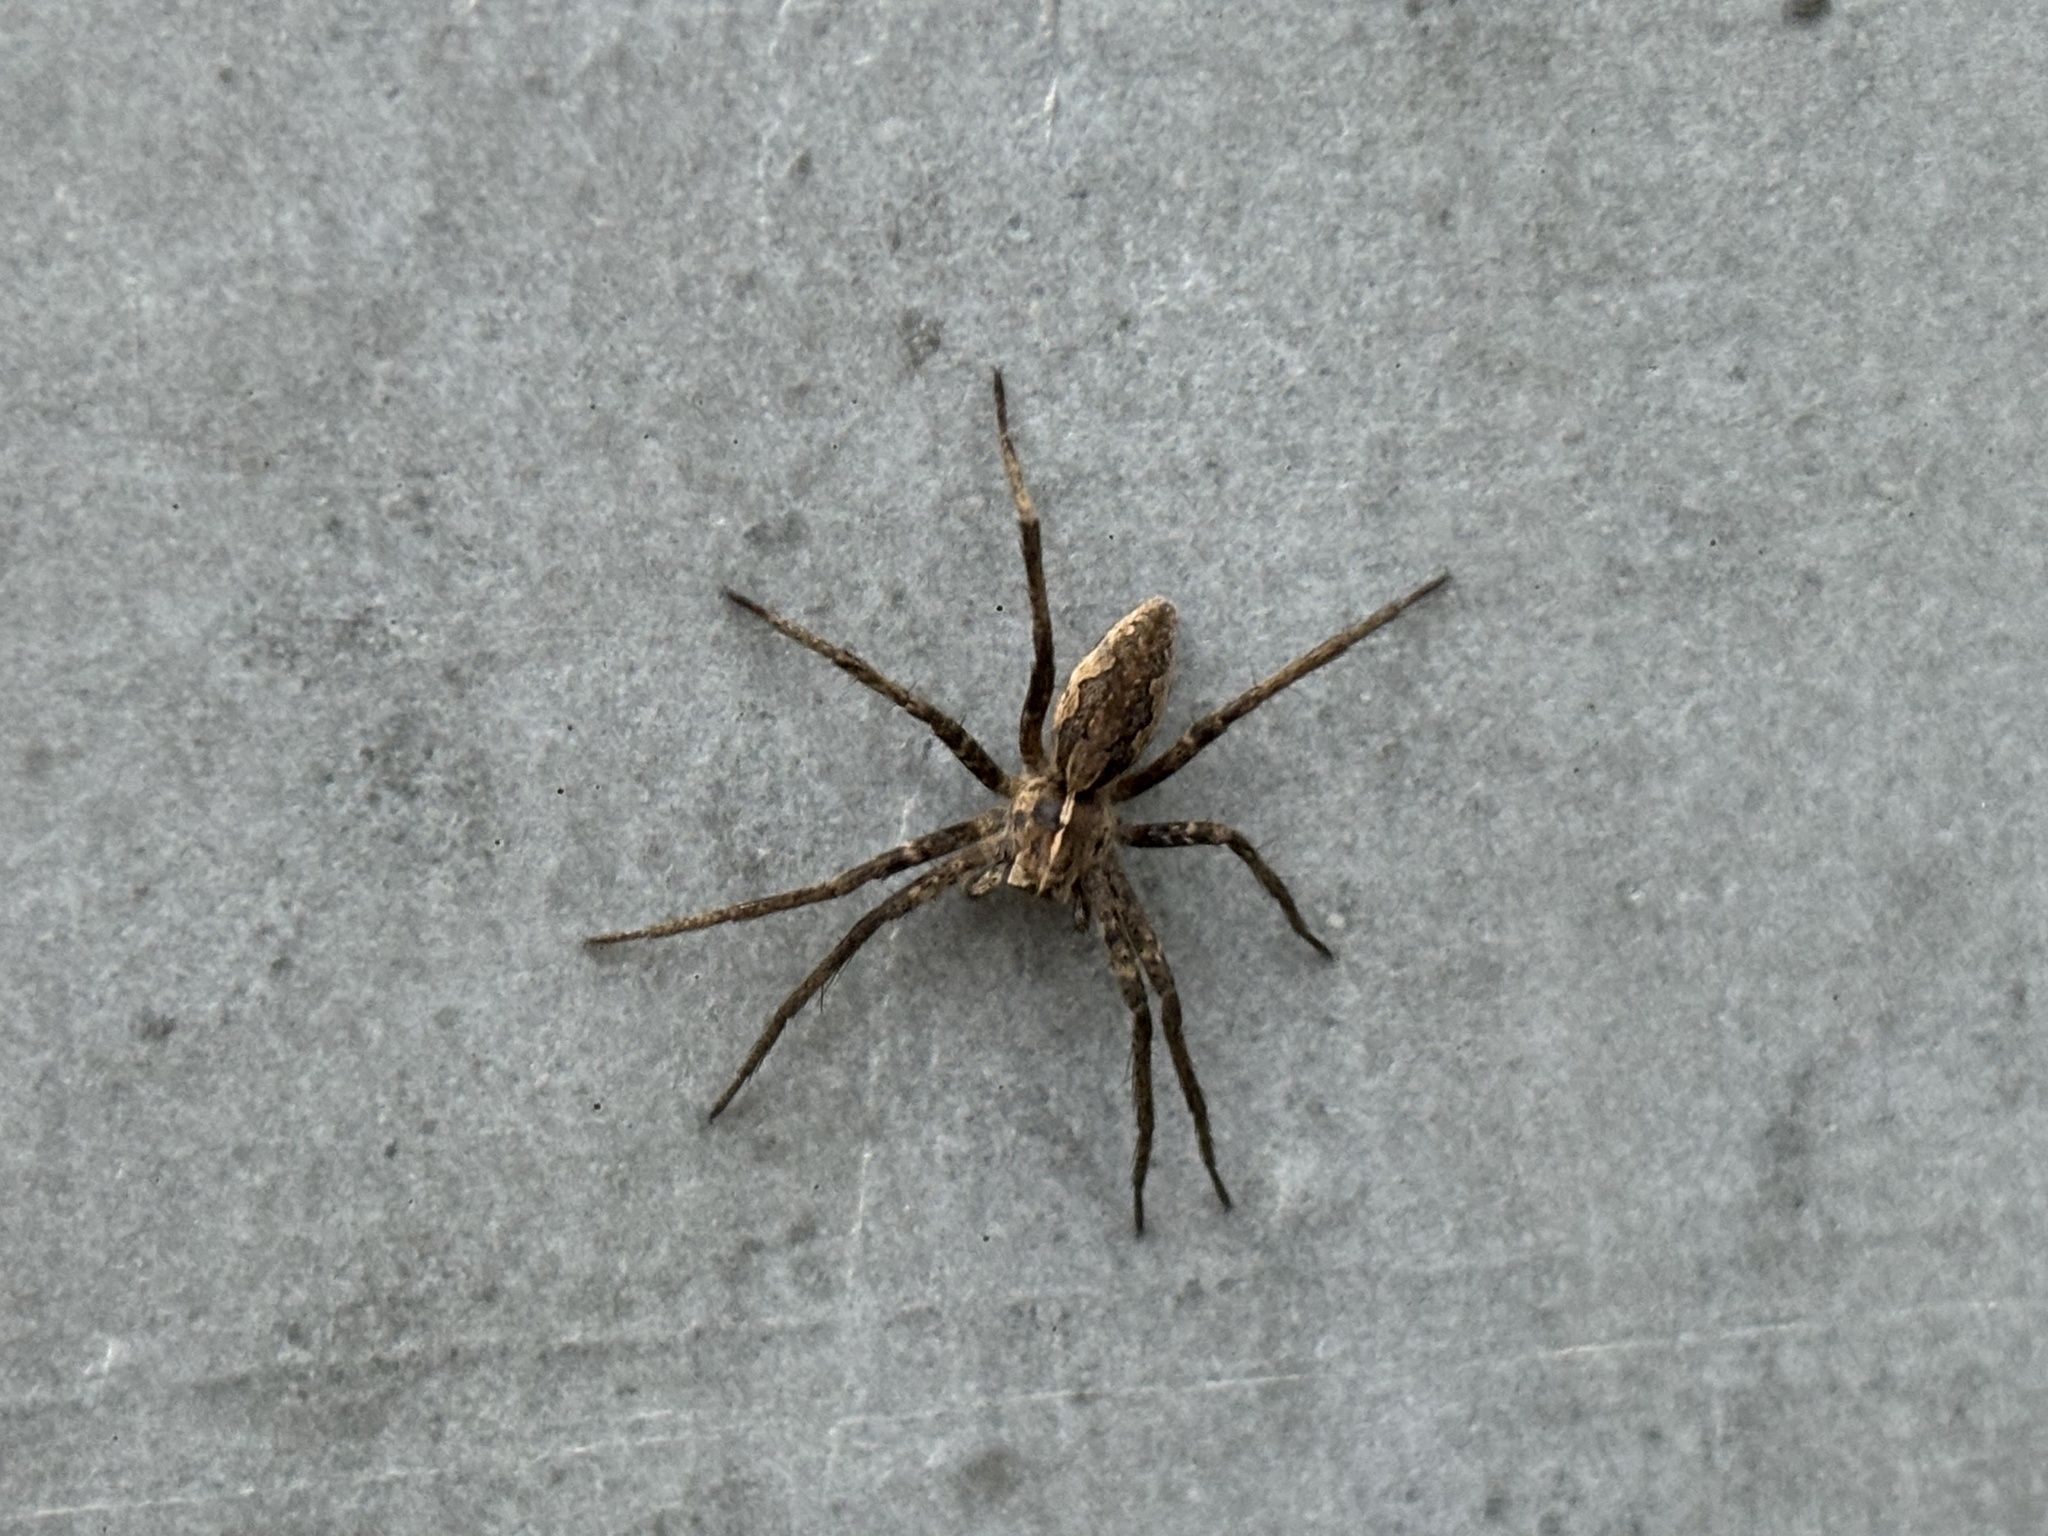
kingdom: Animalia
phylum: Arthropoda
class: Arachnida
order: Araneae
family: Pisauridae
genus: Pisaura
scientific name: Pisaura mirabilis
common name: Tent spider
